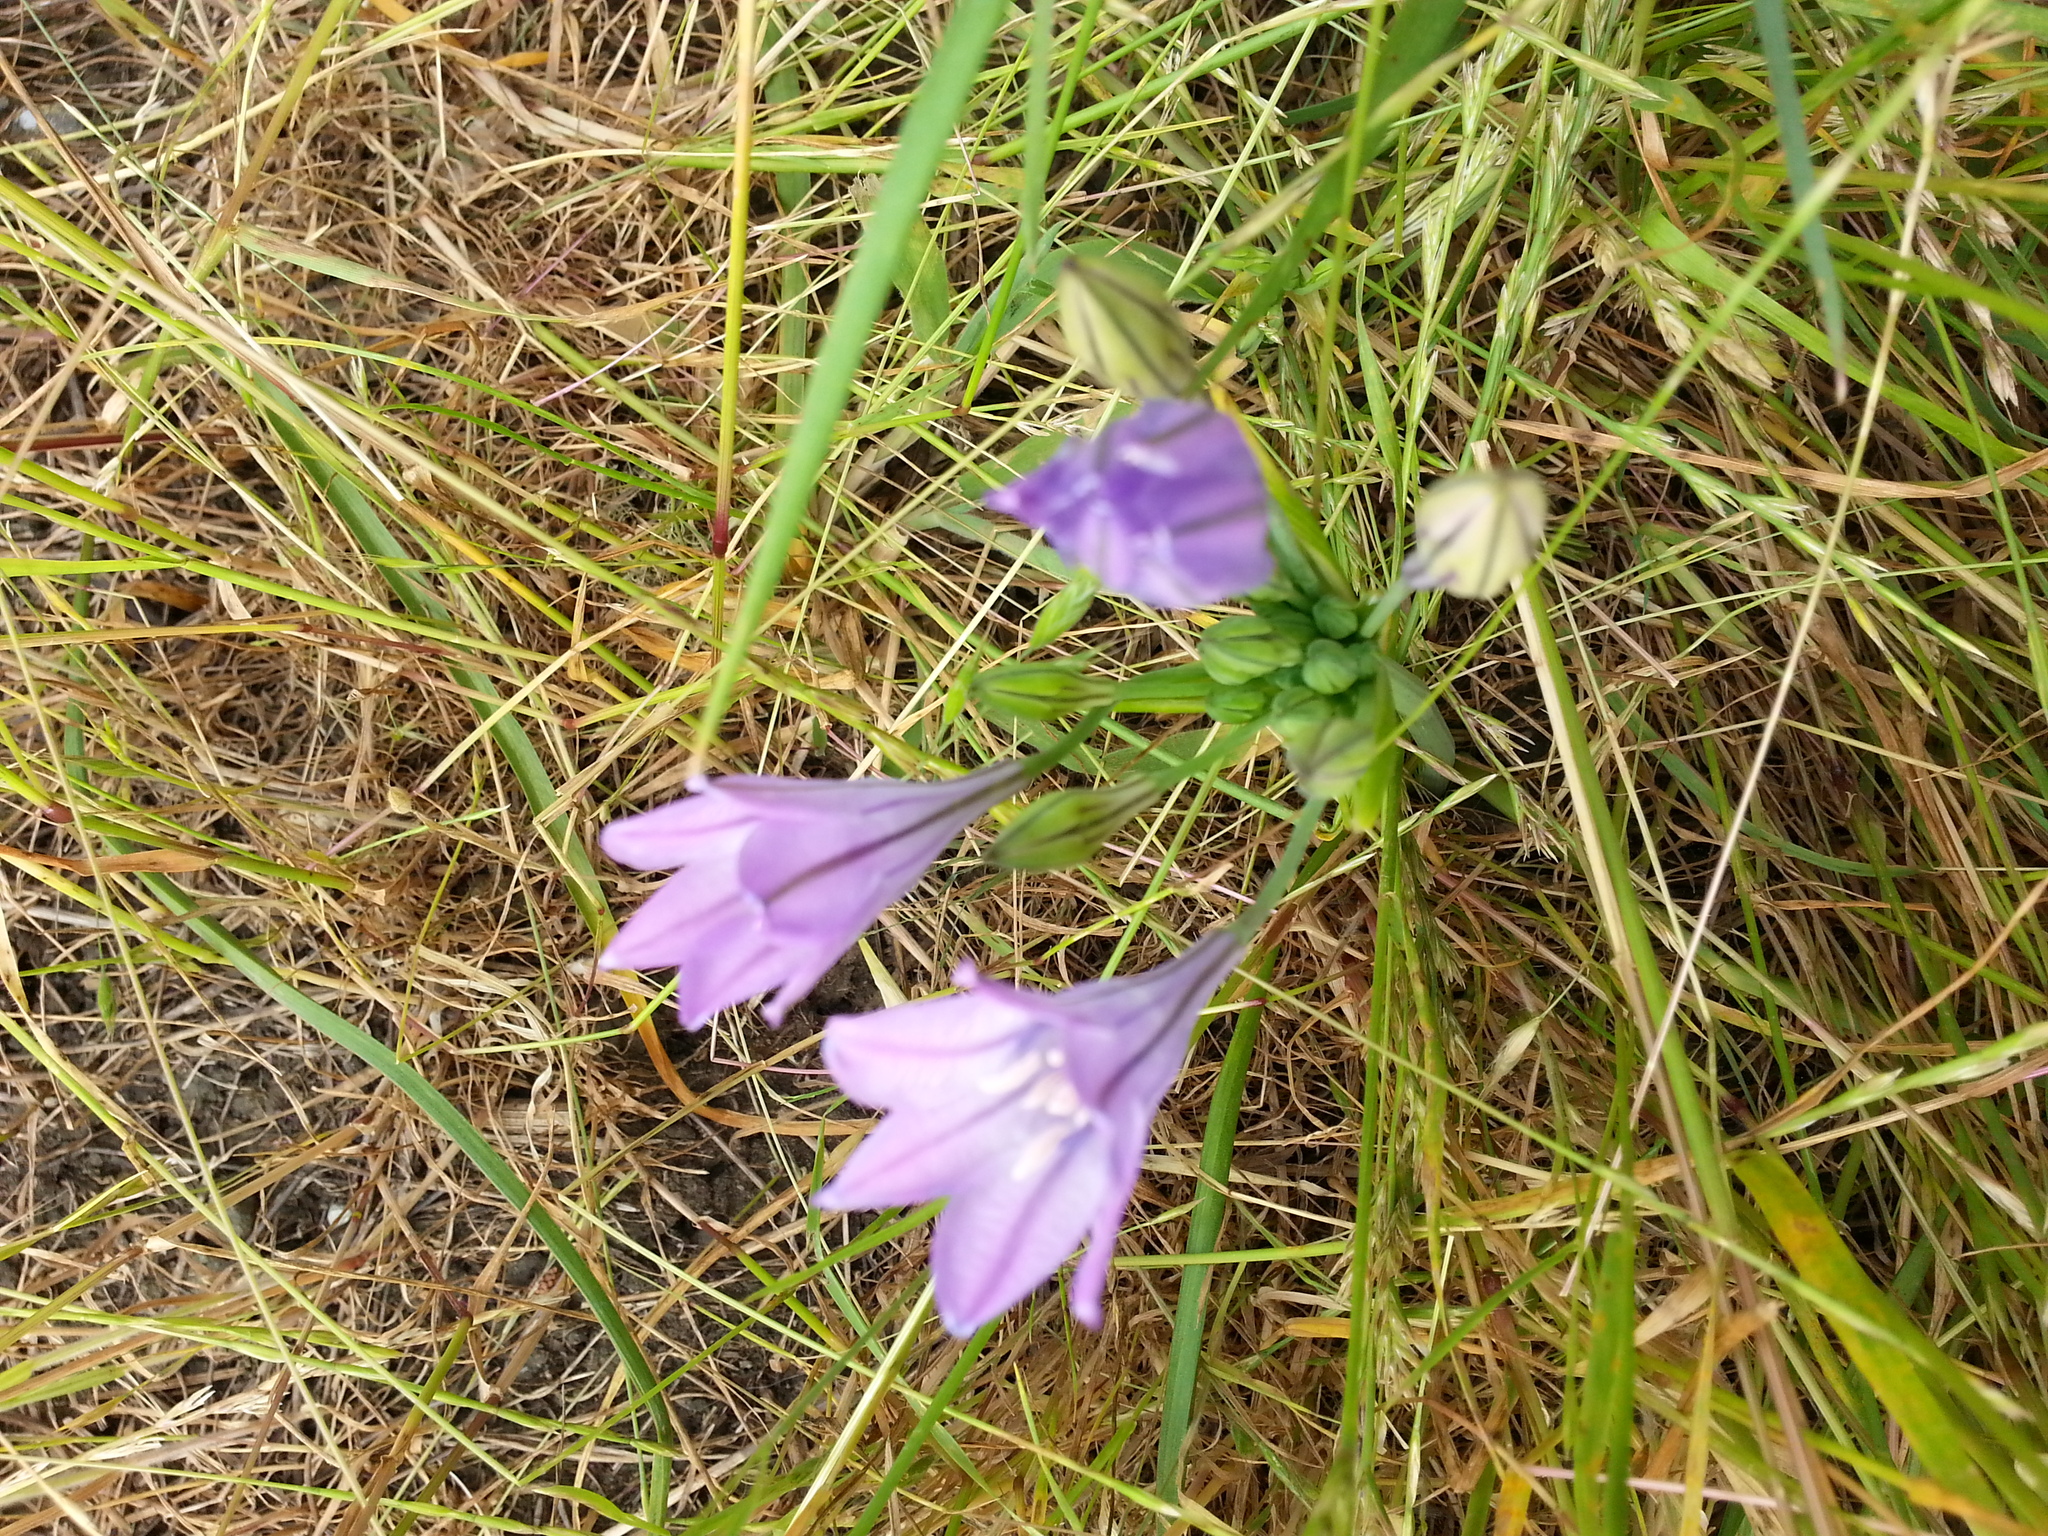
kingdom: Plantae
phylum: Tracheophyta
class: Liliopsida
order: Asparagales
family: Asparagaceae
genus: Triteleia
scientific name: Triteleia laxa
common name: Triplet-lily
